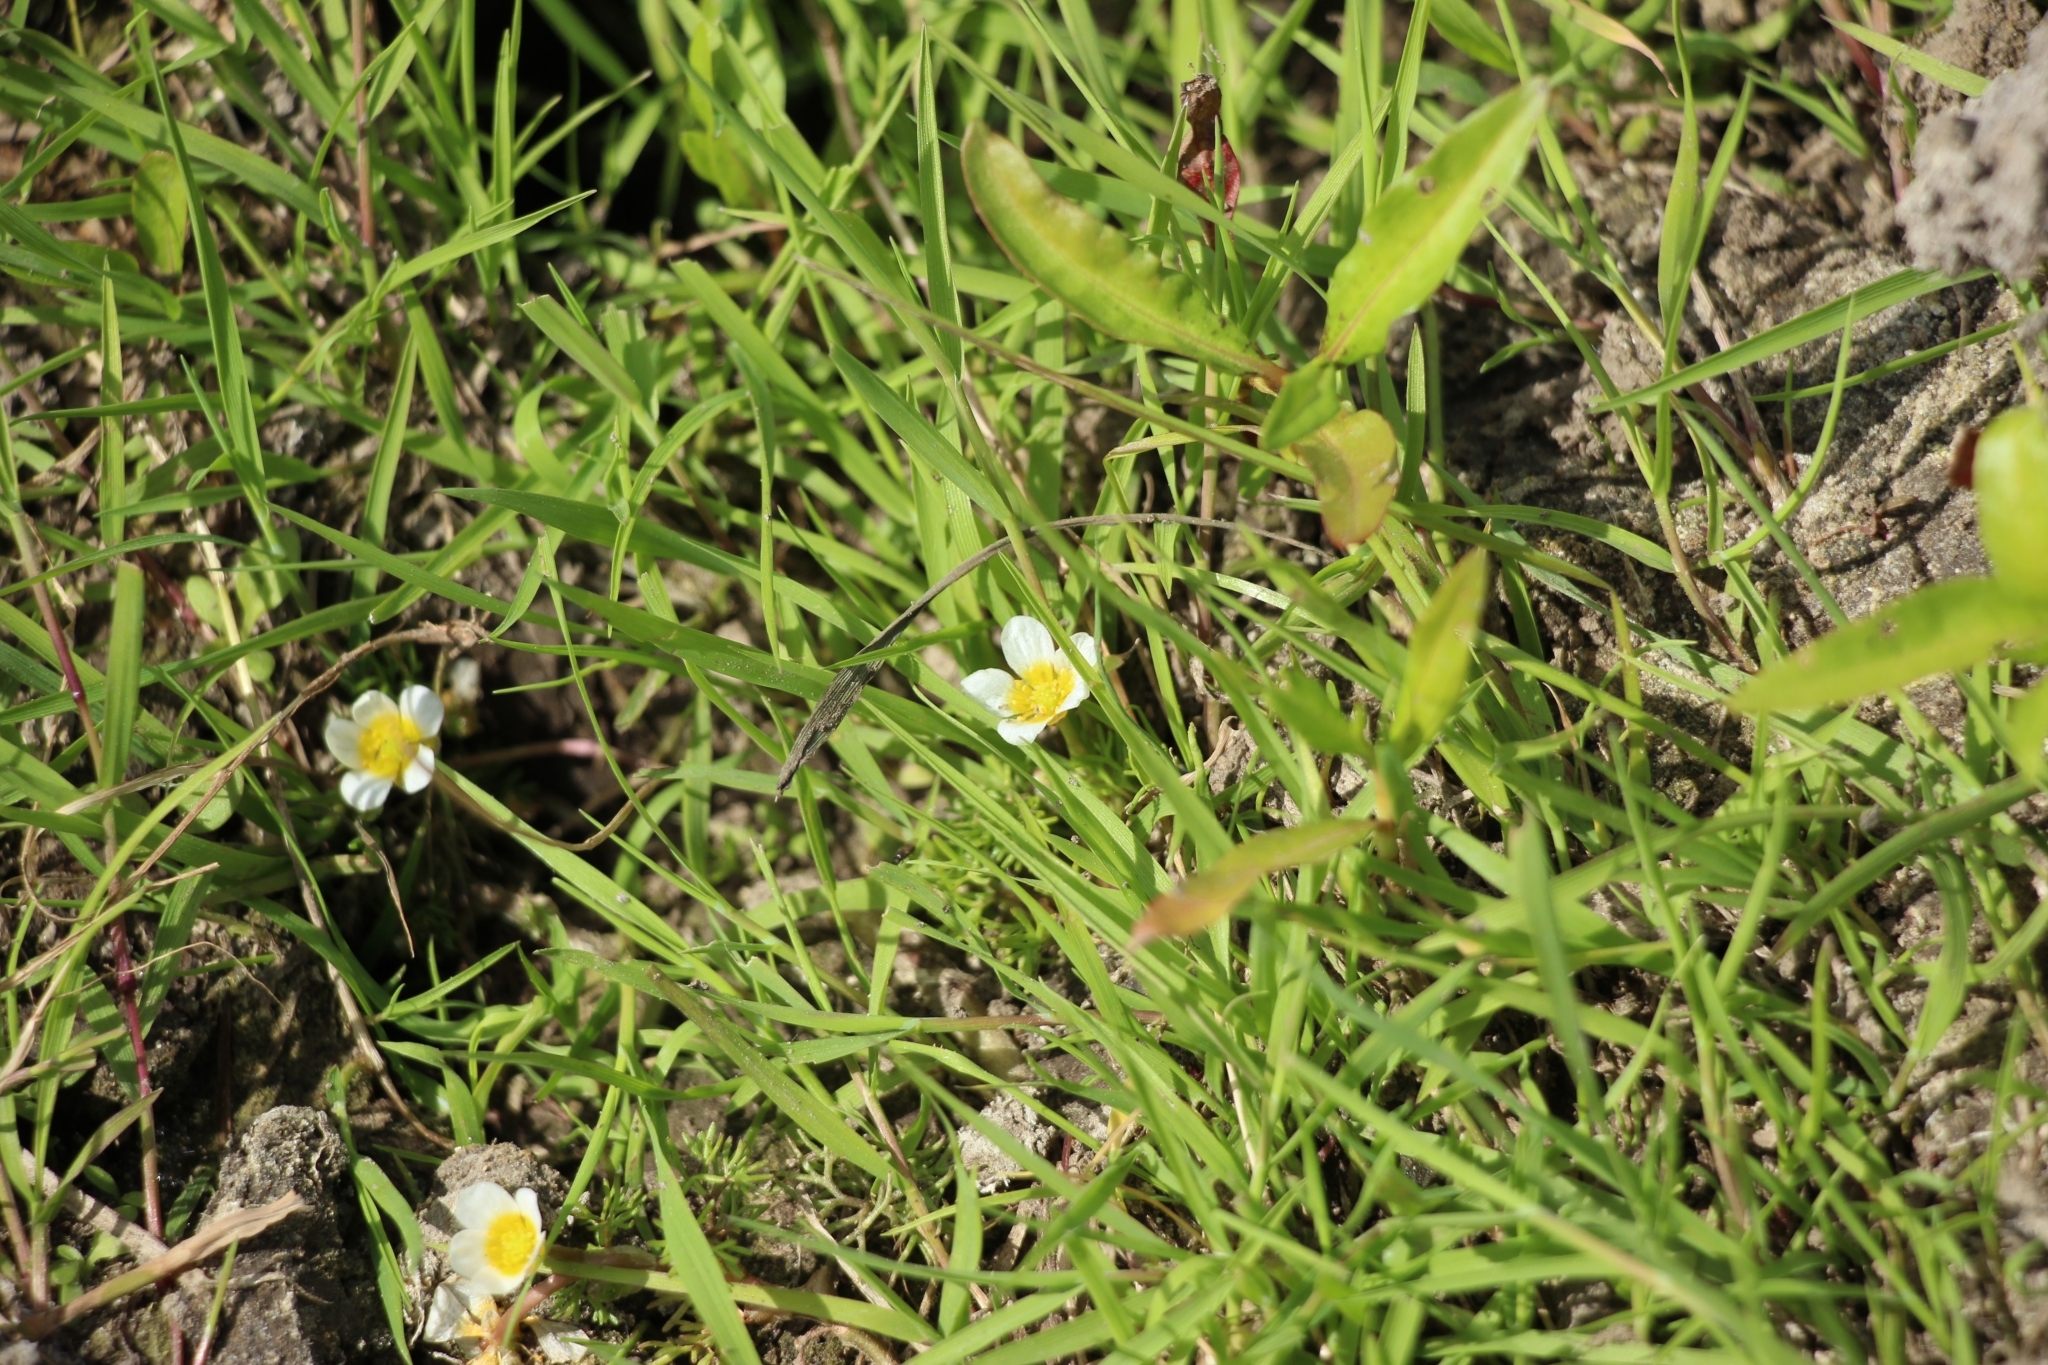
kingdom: Plantae
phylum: Tracheophyta
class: Magnoliopsida
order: Ranunculales
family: Ranunculaceae
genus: Ranunculus
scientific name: Ranunculus trichophyllus
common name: Thread-leaved water-crowfoot
